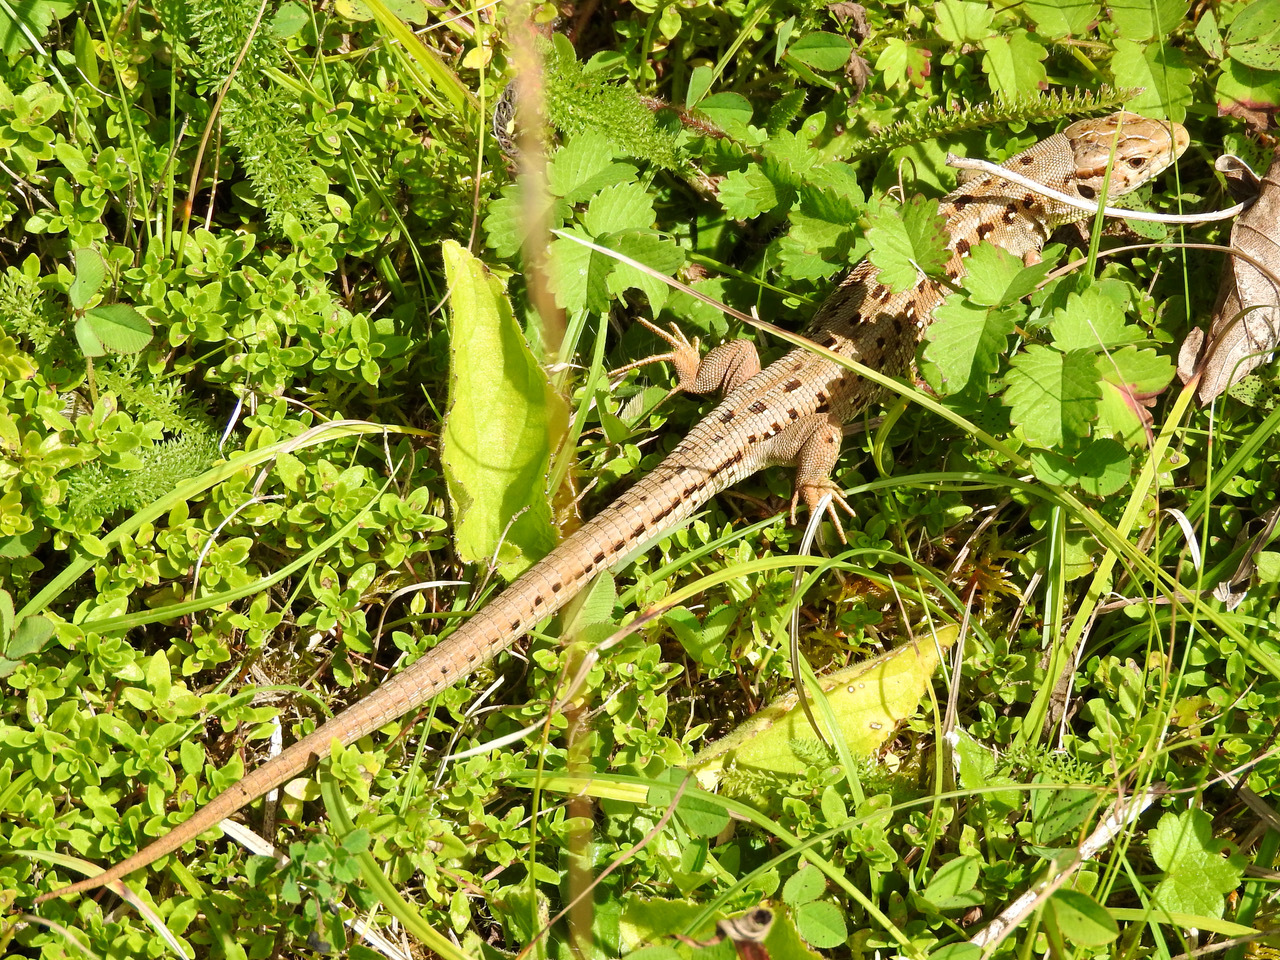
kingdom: Animalia
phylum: Chordata
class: Squamata
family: Lacertidae
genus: Lacerta
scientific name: Lacerta agilis
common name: Sand lizard
